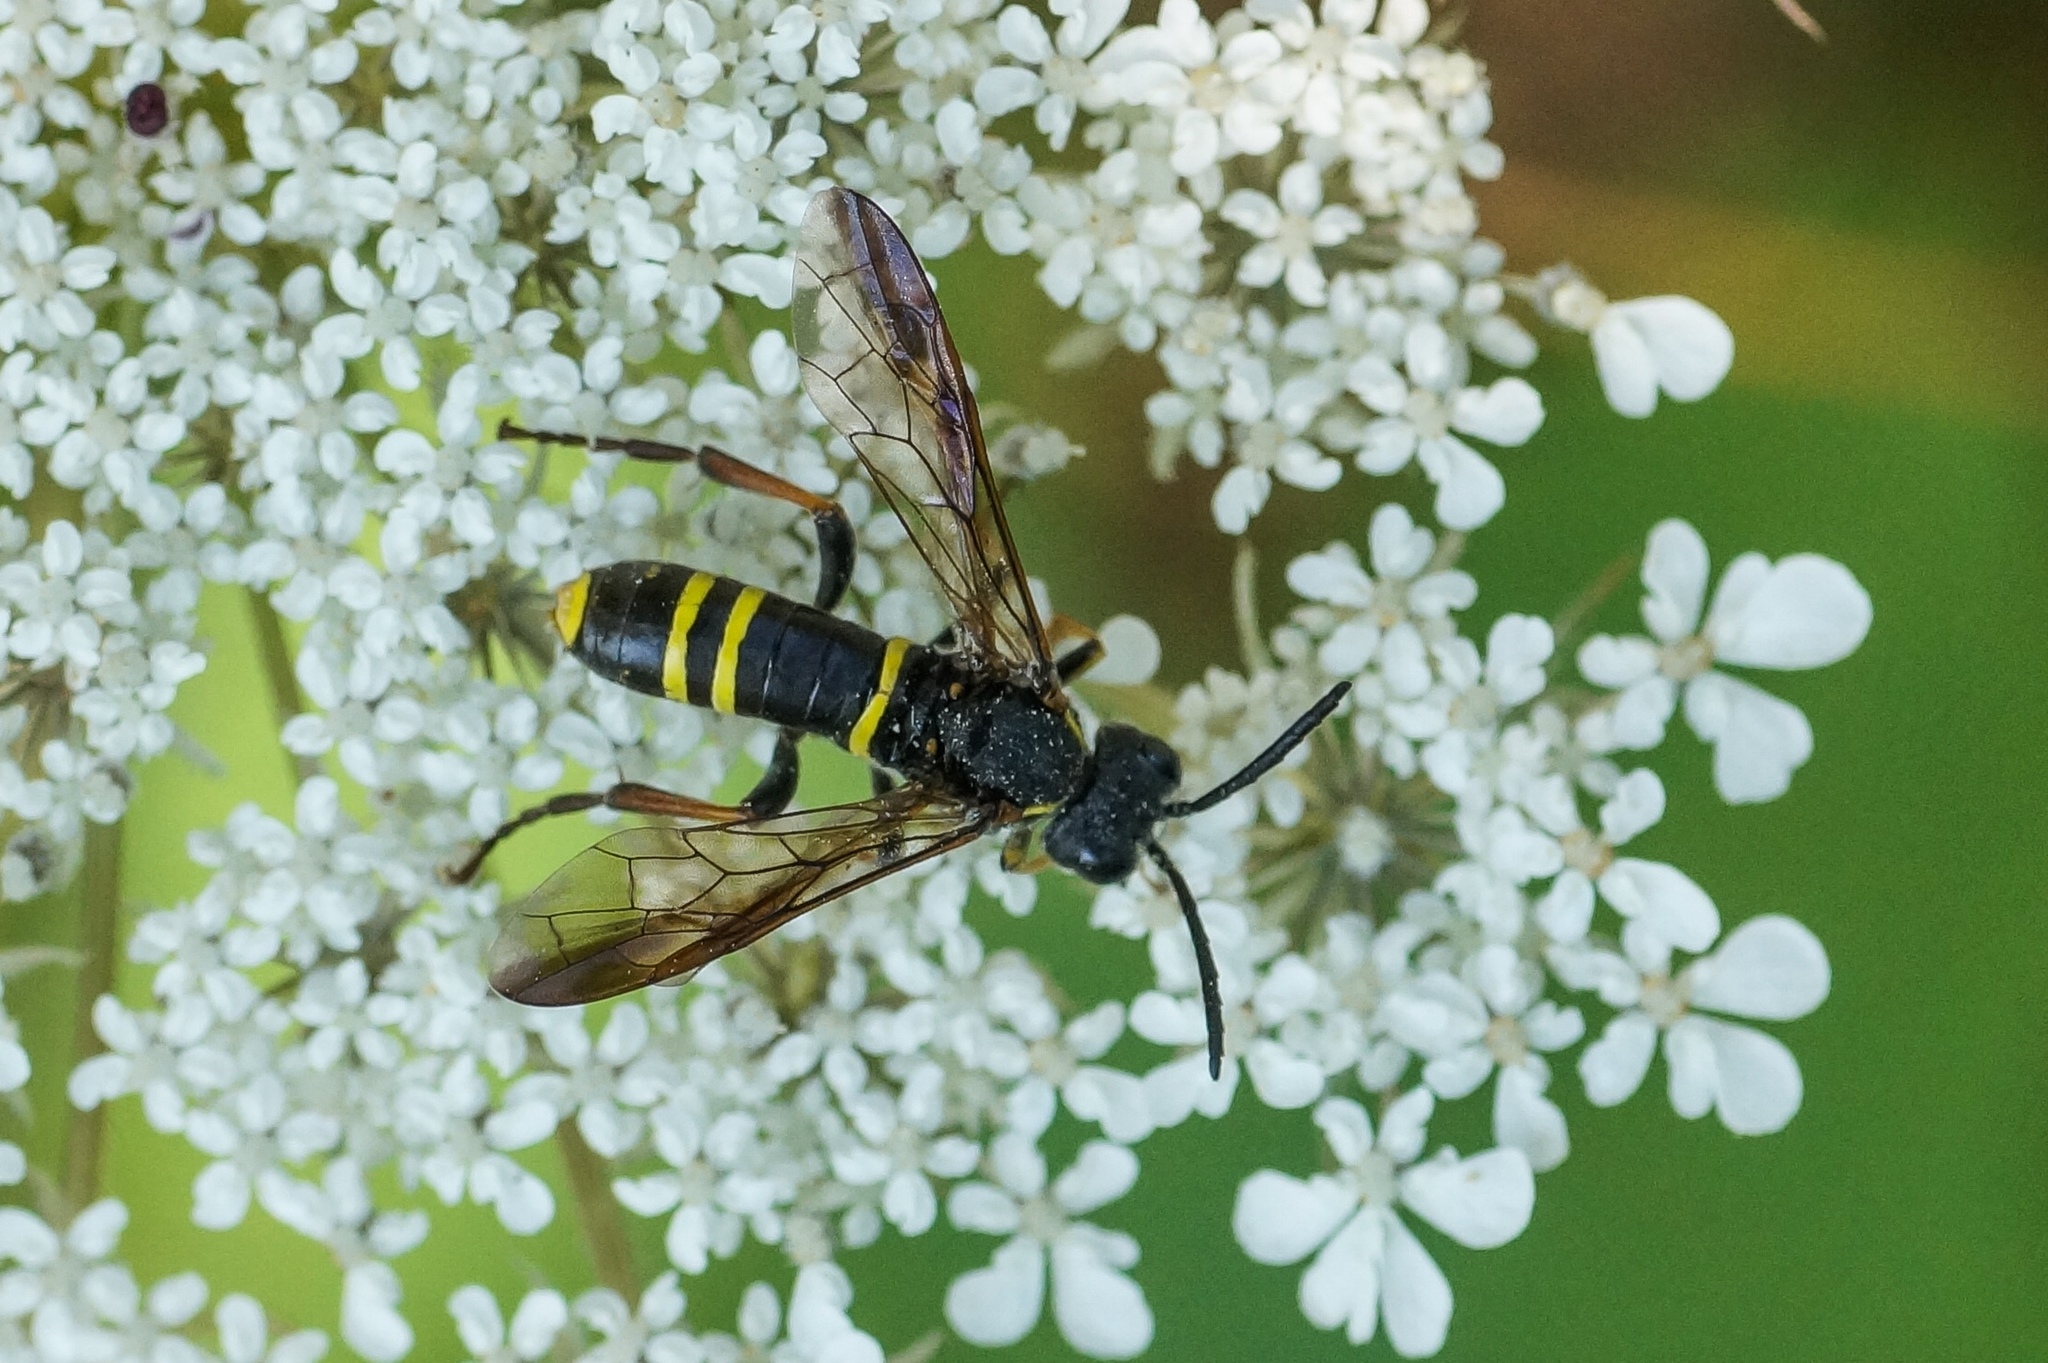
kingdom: Animalia
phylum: Arthropoda
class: Insecta
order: Hymenoptera
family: Tenthredinidae
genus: Tenthredo
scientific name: Tenthredo vespa
